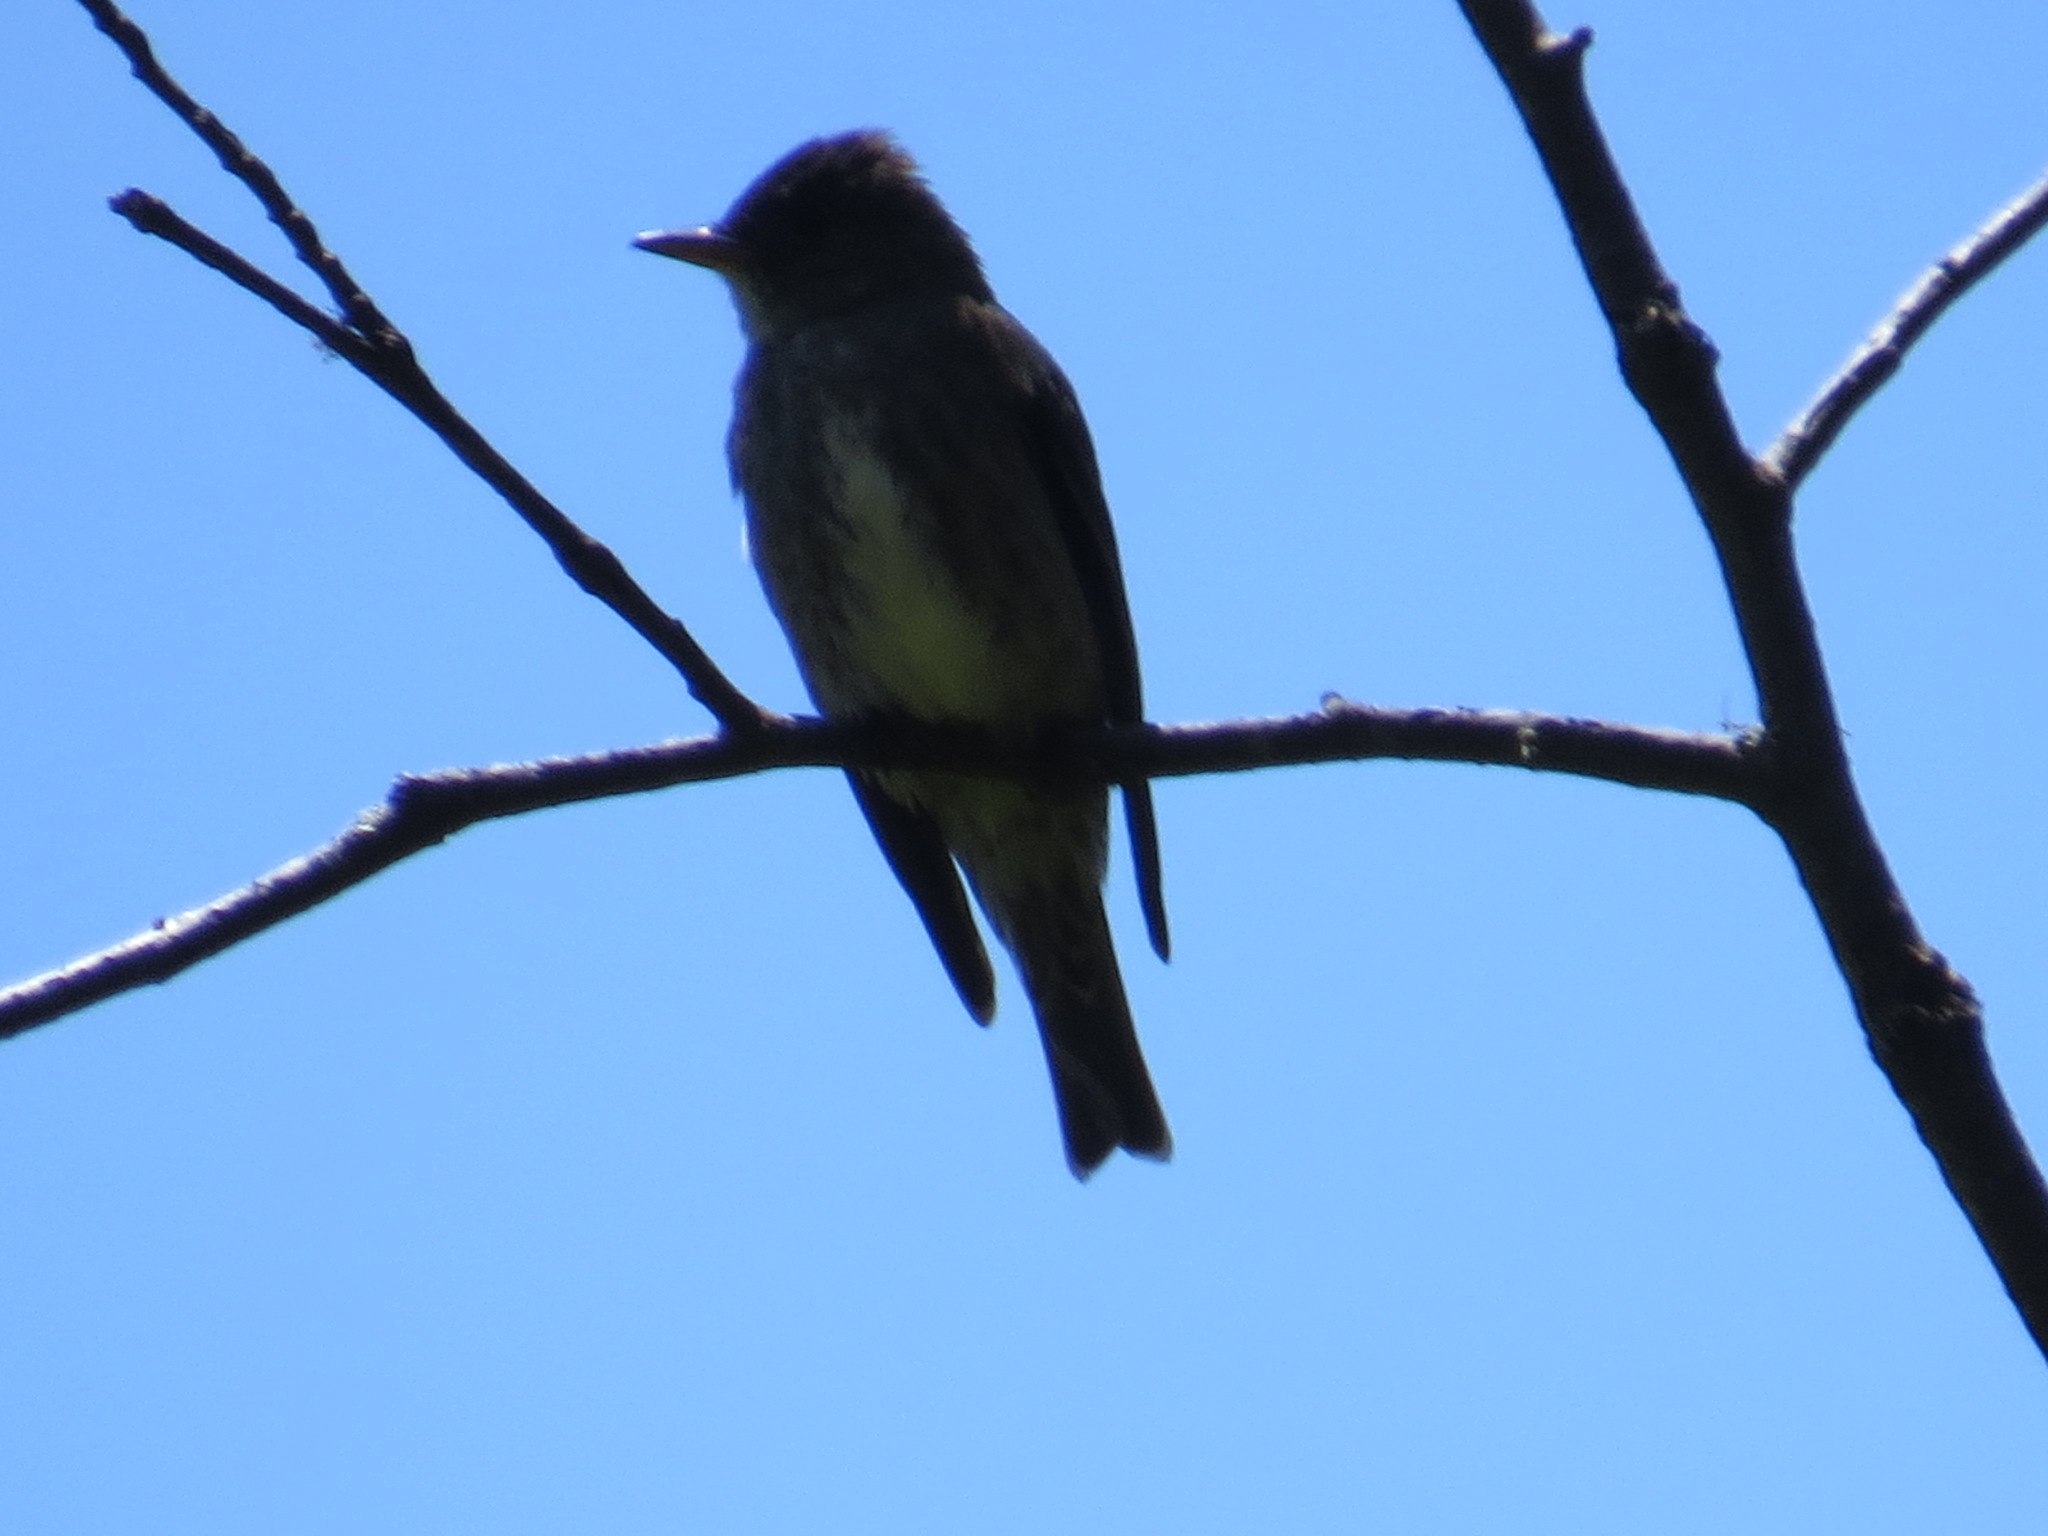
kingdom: Animalia
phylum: Chordata
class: Aves
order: Passeriformes
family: Tyrannidae
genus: Contopus
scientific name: Contopus sordidulus
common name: Western wood-pewee
